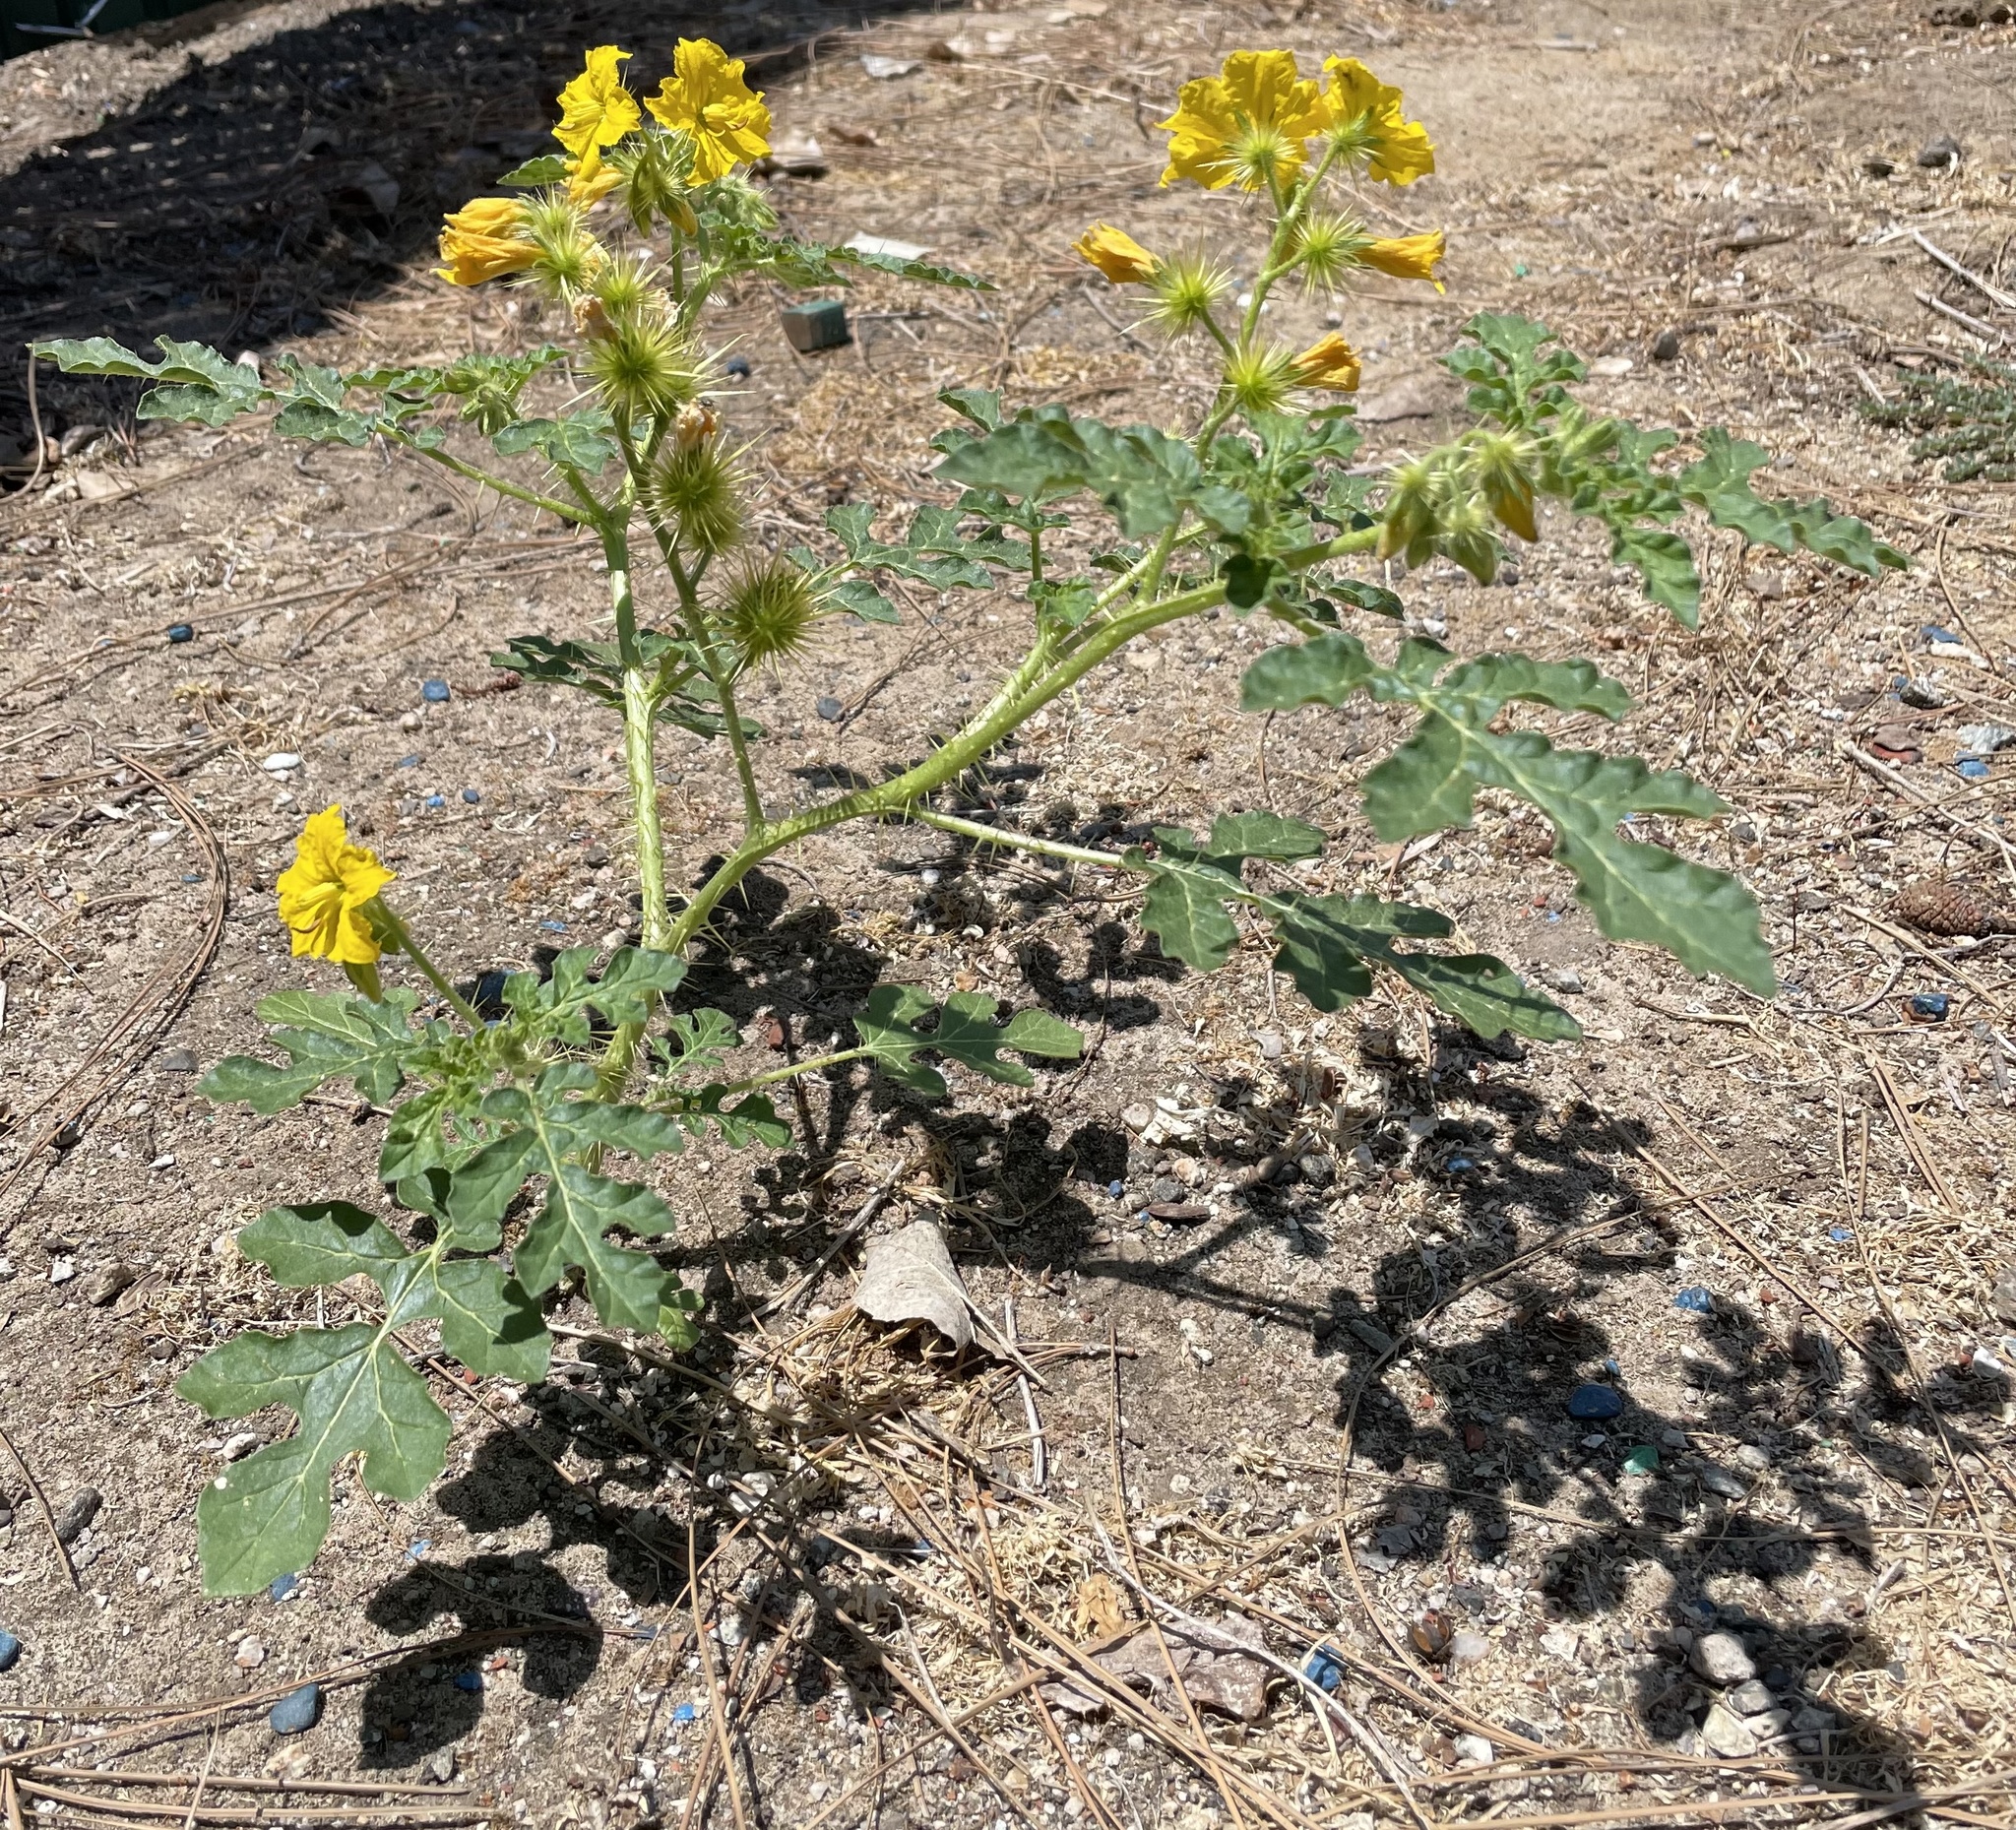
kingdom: Plantae
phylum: Tracheophyta
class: Magnoliopsida
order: Solanales
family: Solanaceae
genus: Solanum
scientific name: Solanum angustifolium
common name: Buffalobur nightshade
